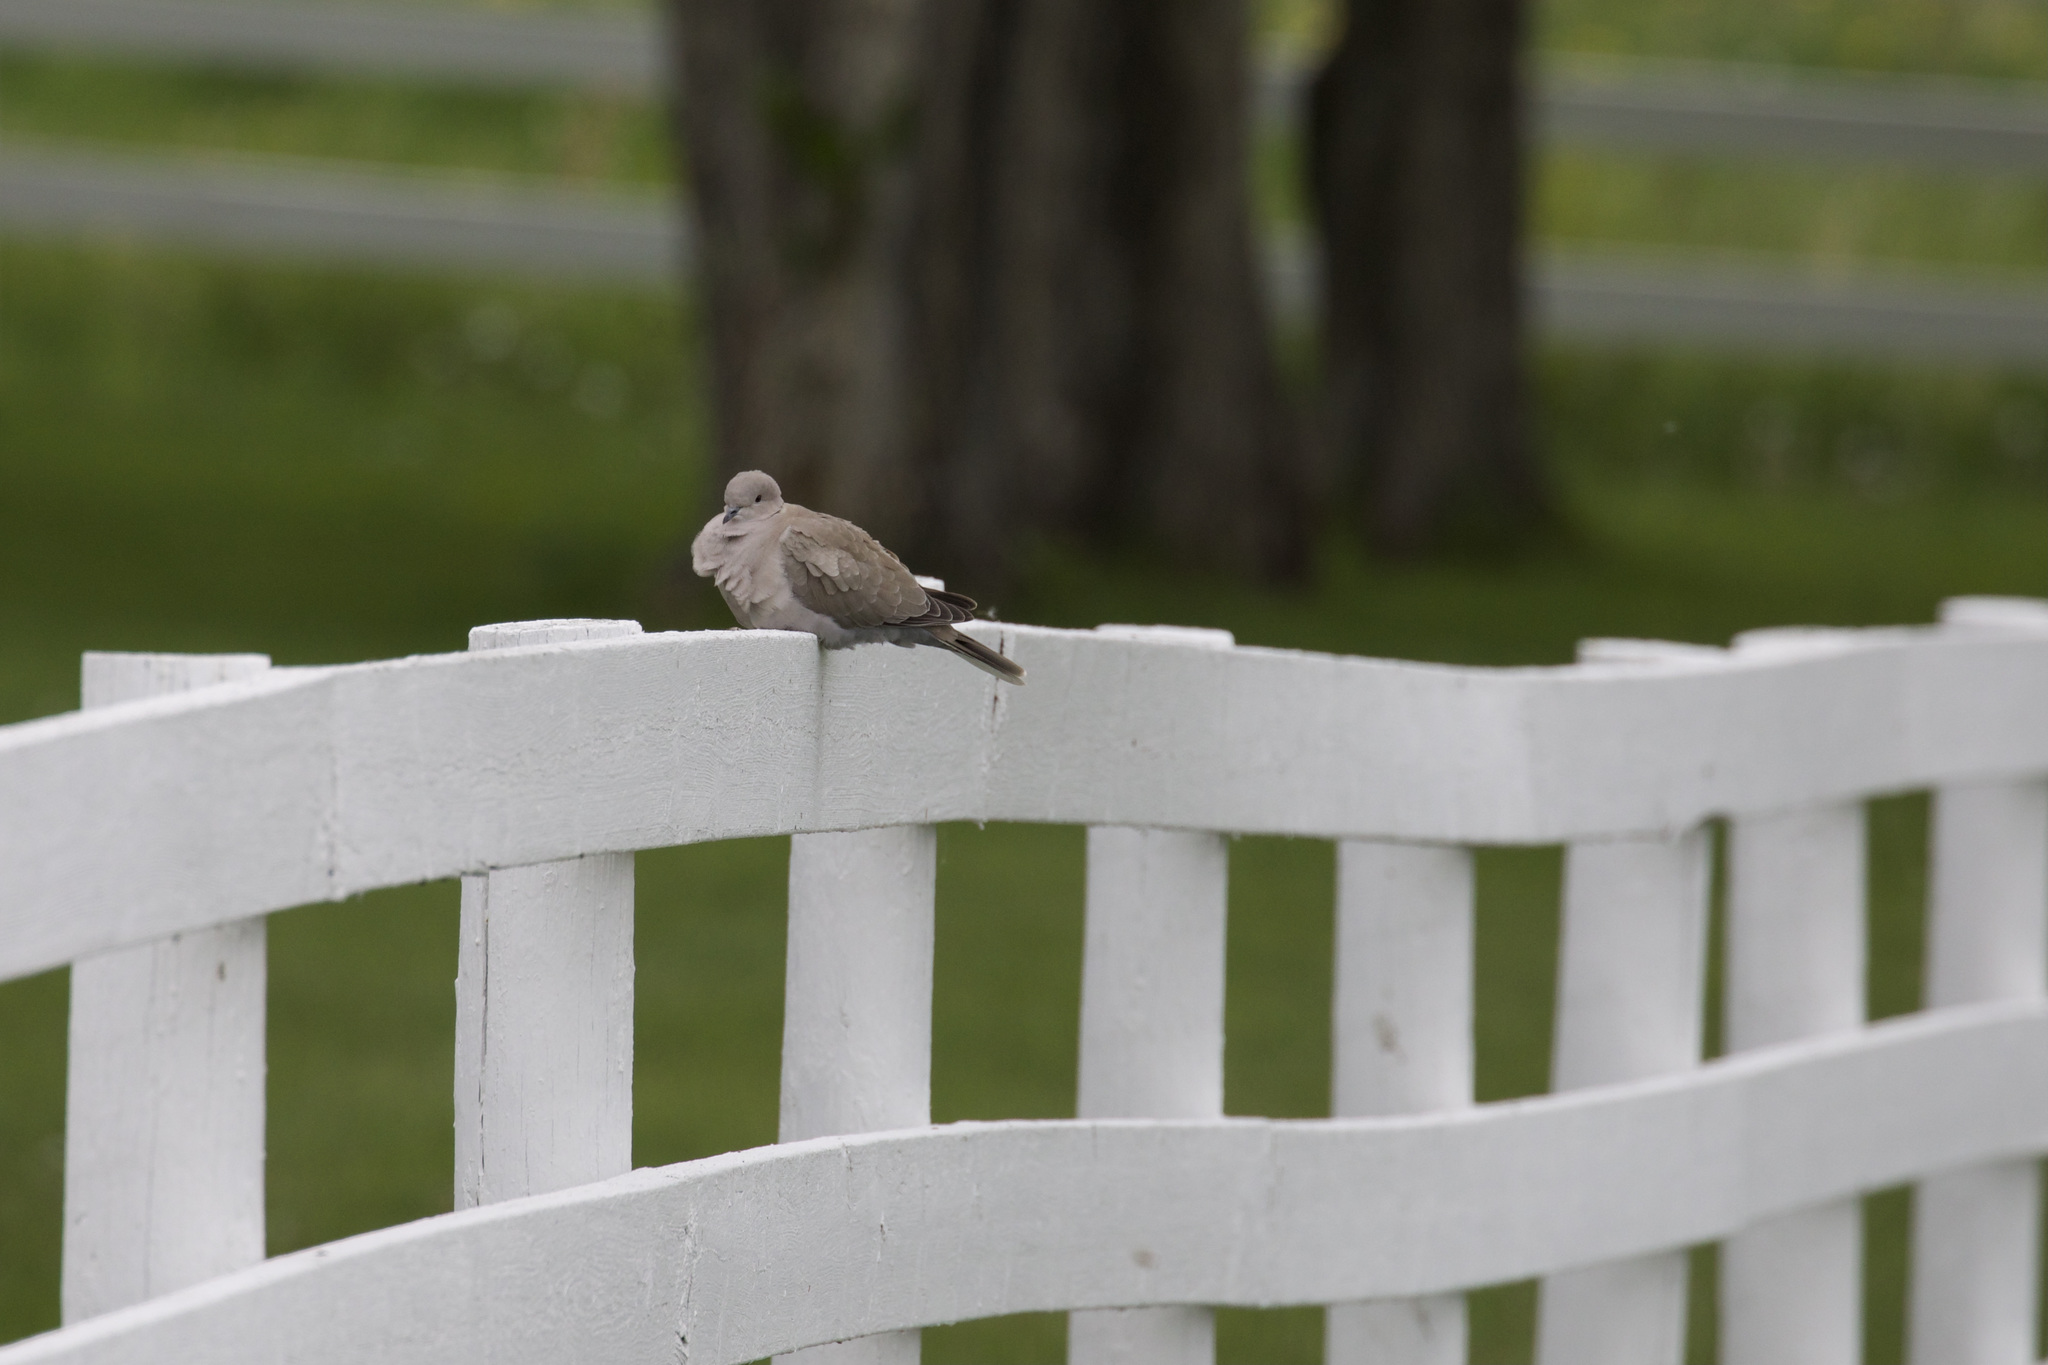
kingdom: Animalia
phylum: Chordata
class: Aves
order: Columbiformes
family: Columbidae
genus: Streptopelia
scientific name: Streptopelia decaocto
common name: Eurasian collared dove
